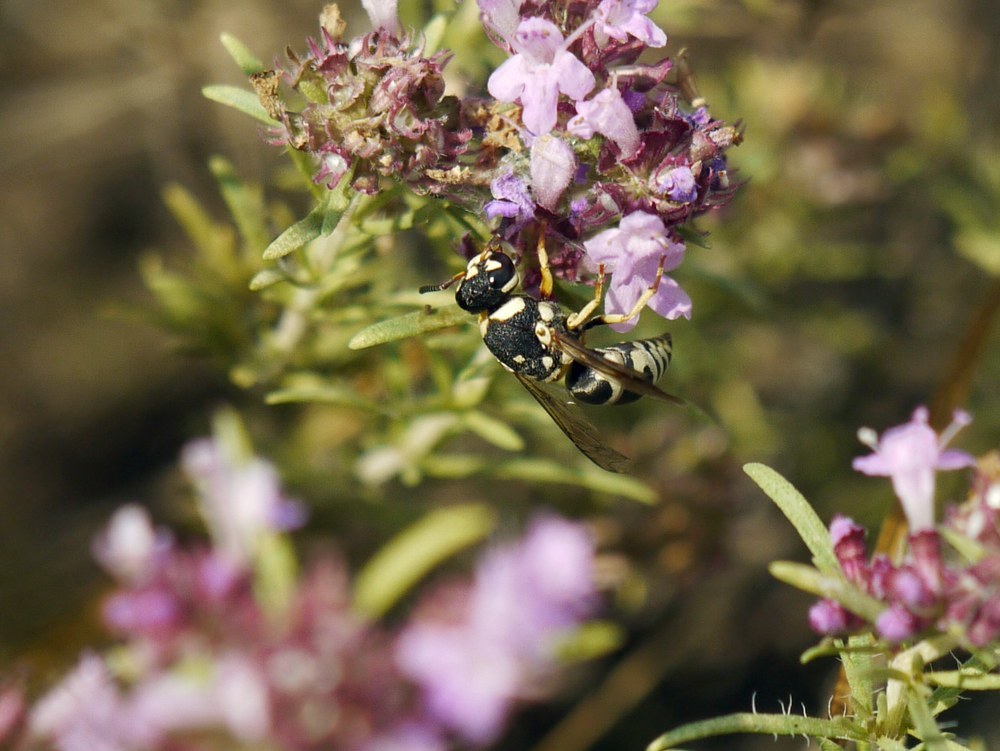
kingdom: Animalia
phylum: Arthropoda
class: Insecta
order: Hymenoptera
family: Eumenidae
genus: Euodynerus
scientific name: Euodynerus disconotatus
